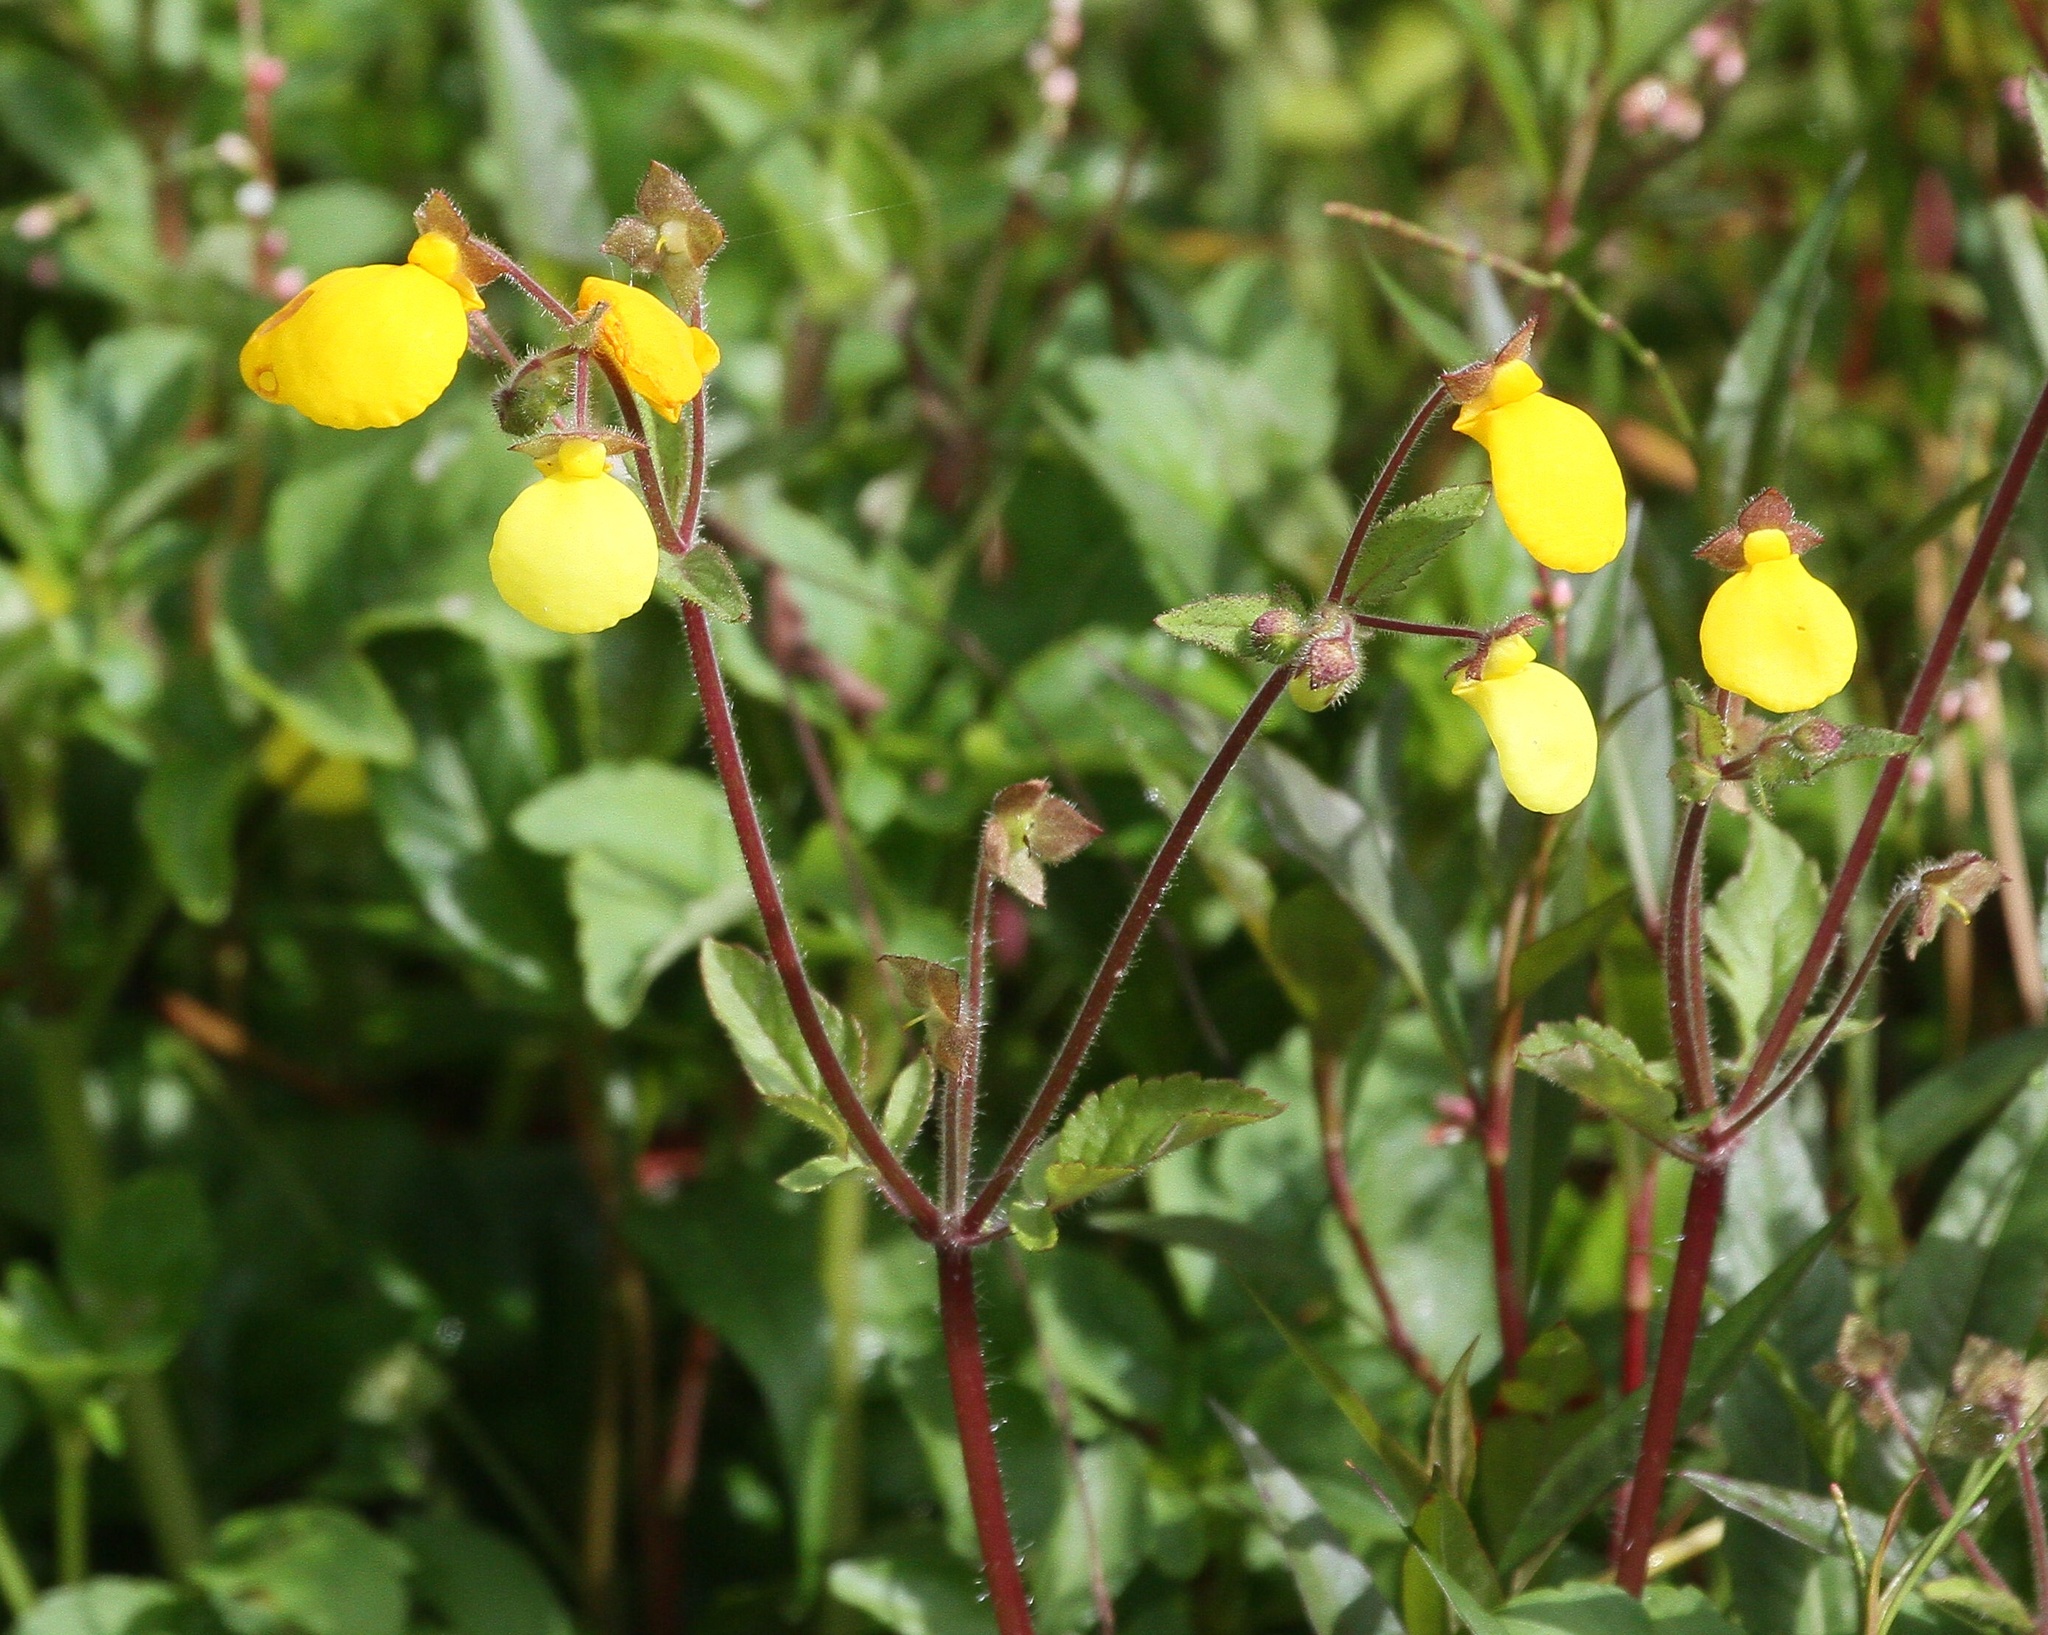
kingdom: Plantae
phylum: Tracheophyta
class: Magnoliopsida
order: Lamiales
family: Calceolariaceae
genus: Calceolaria
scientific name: Calceolaria tripartita
